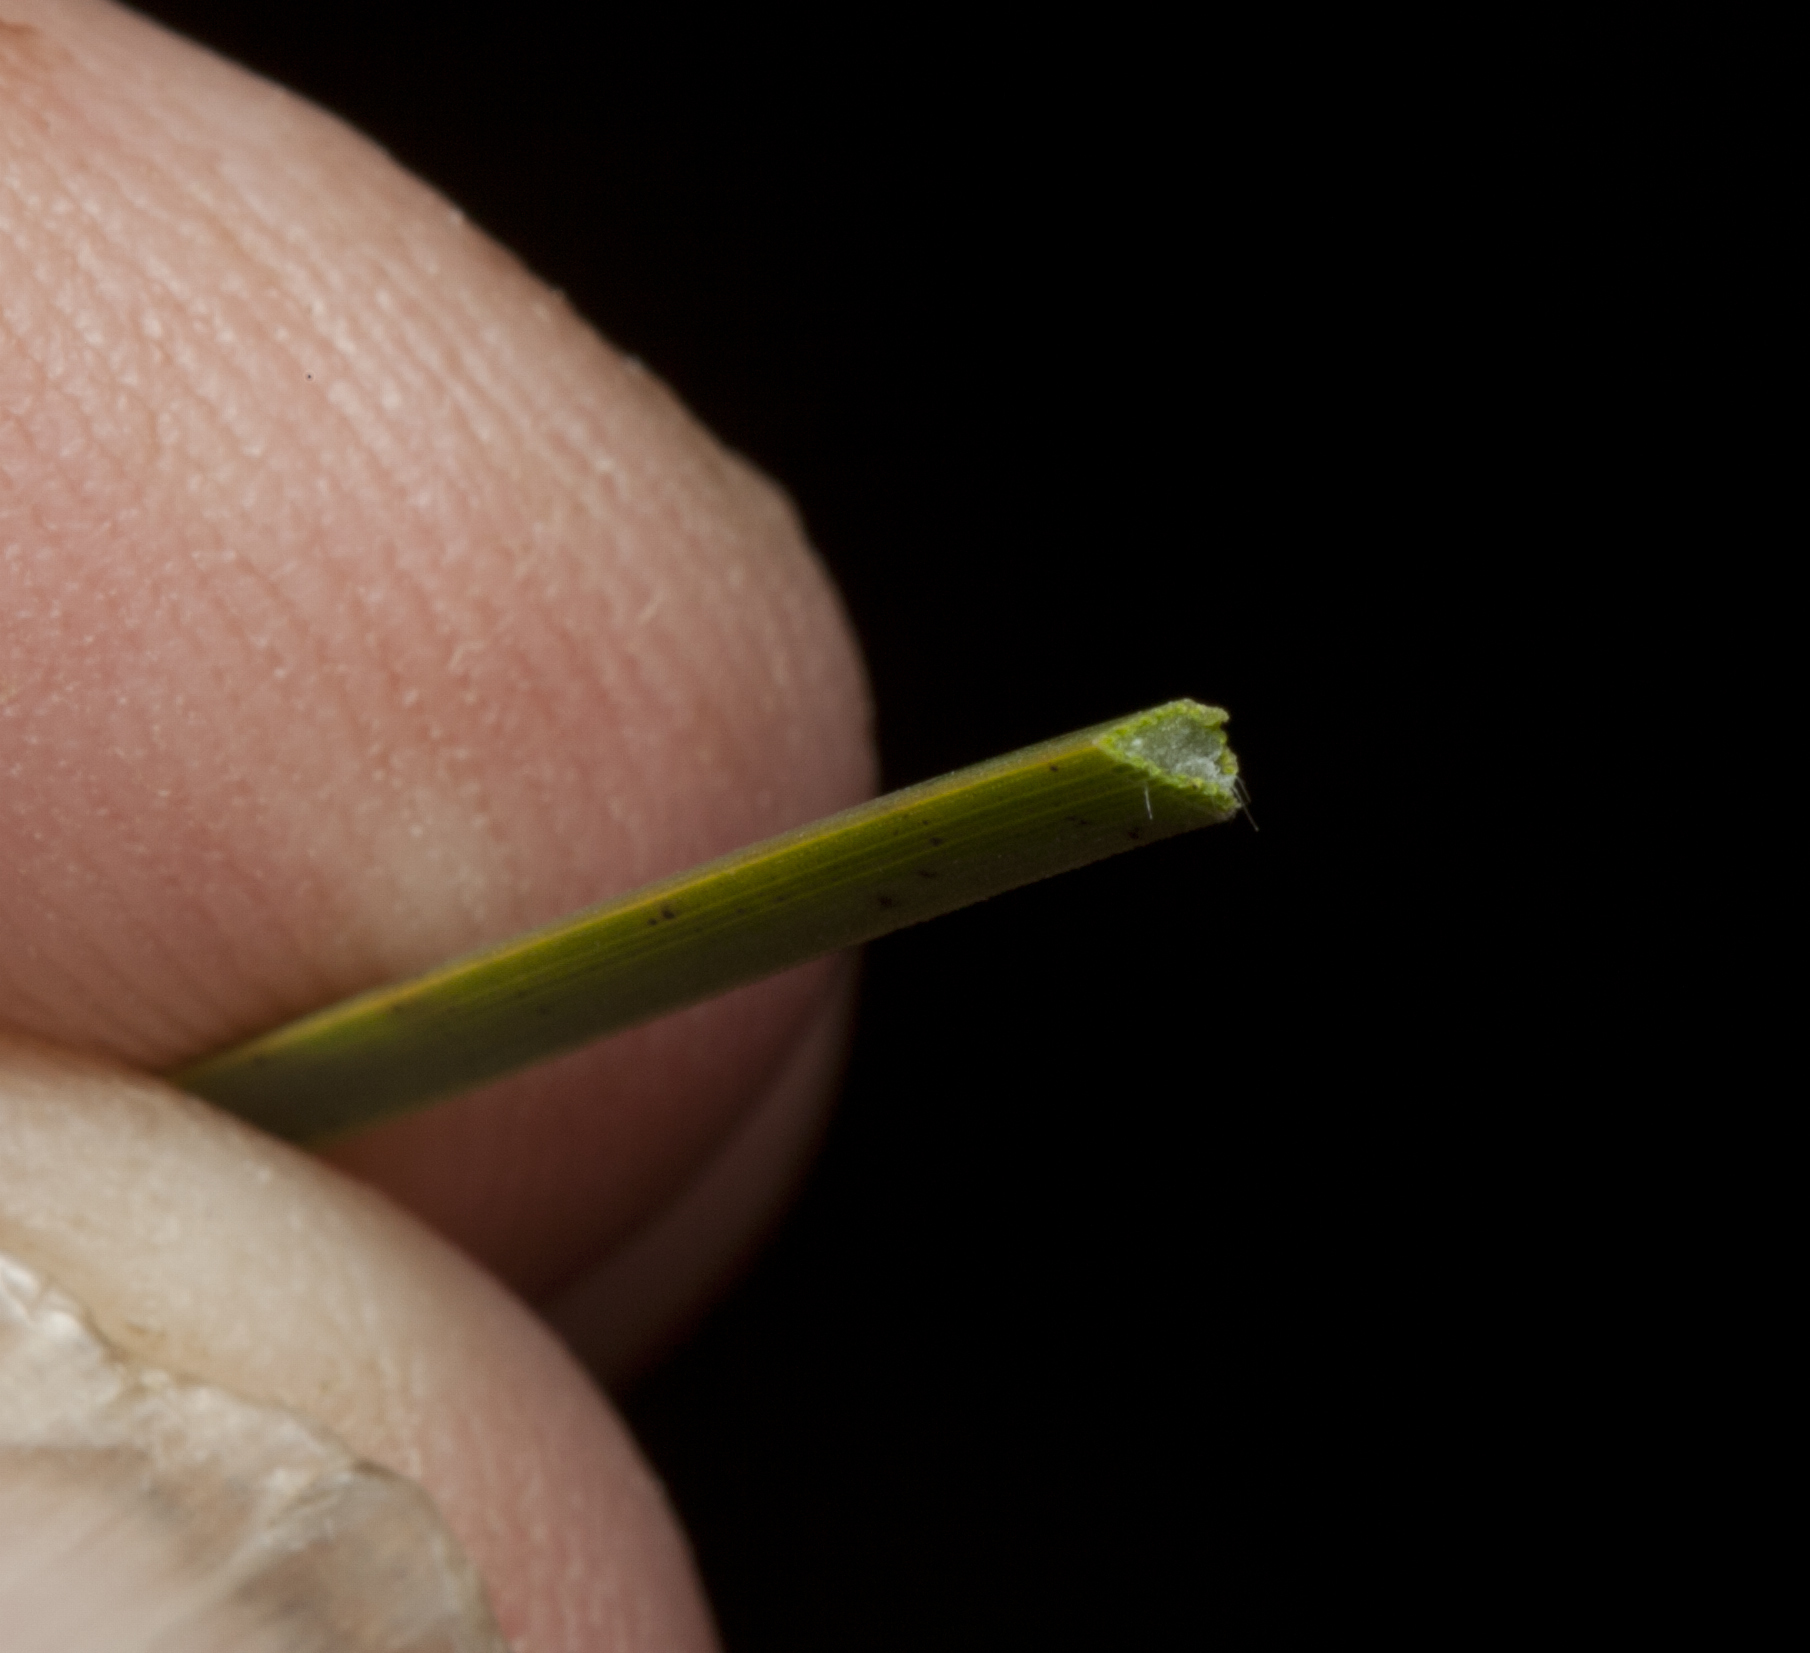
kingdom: Plantae
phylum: Tracheophyta
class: Liliopsida
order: Asparagales
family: Asphodelaceae
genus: Xanthorrhoea
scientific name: Xanthorrhoea fulva
